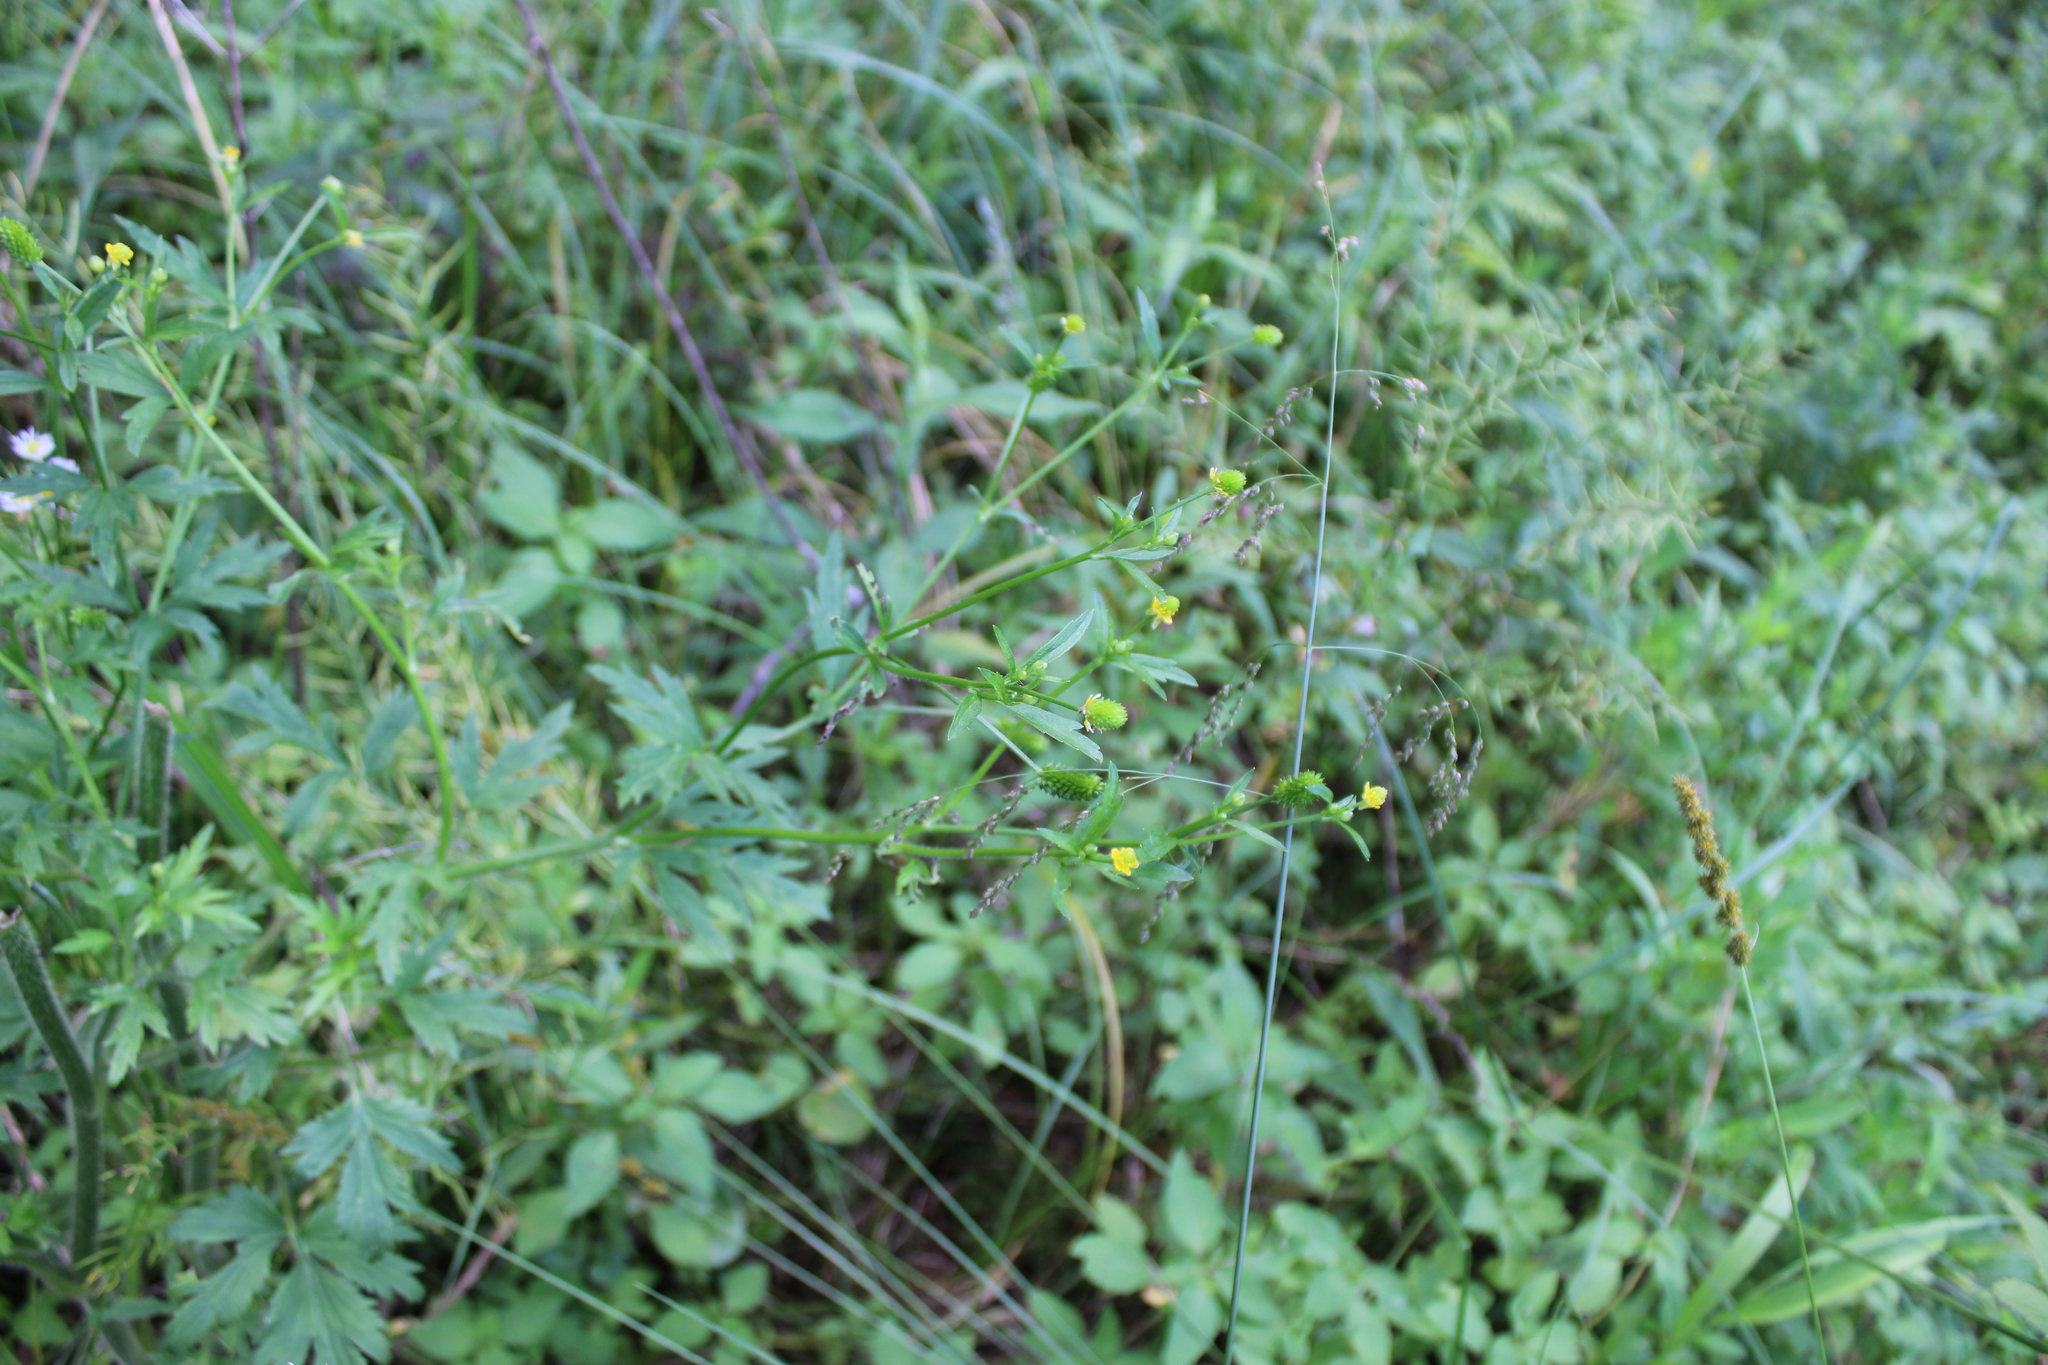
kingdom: Plantae
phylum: Tracheophyta
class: Magnoliopsida
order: Ranunculales
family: Ranunculaceae
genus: Ranunculus
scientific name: Ranunculus pensylvanicus
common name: Bristly buttercup
